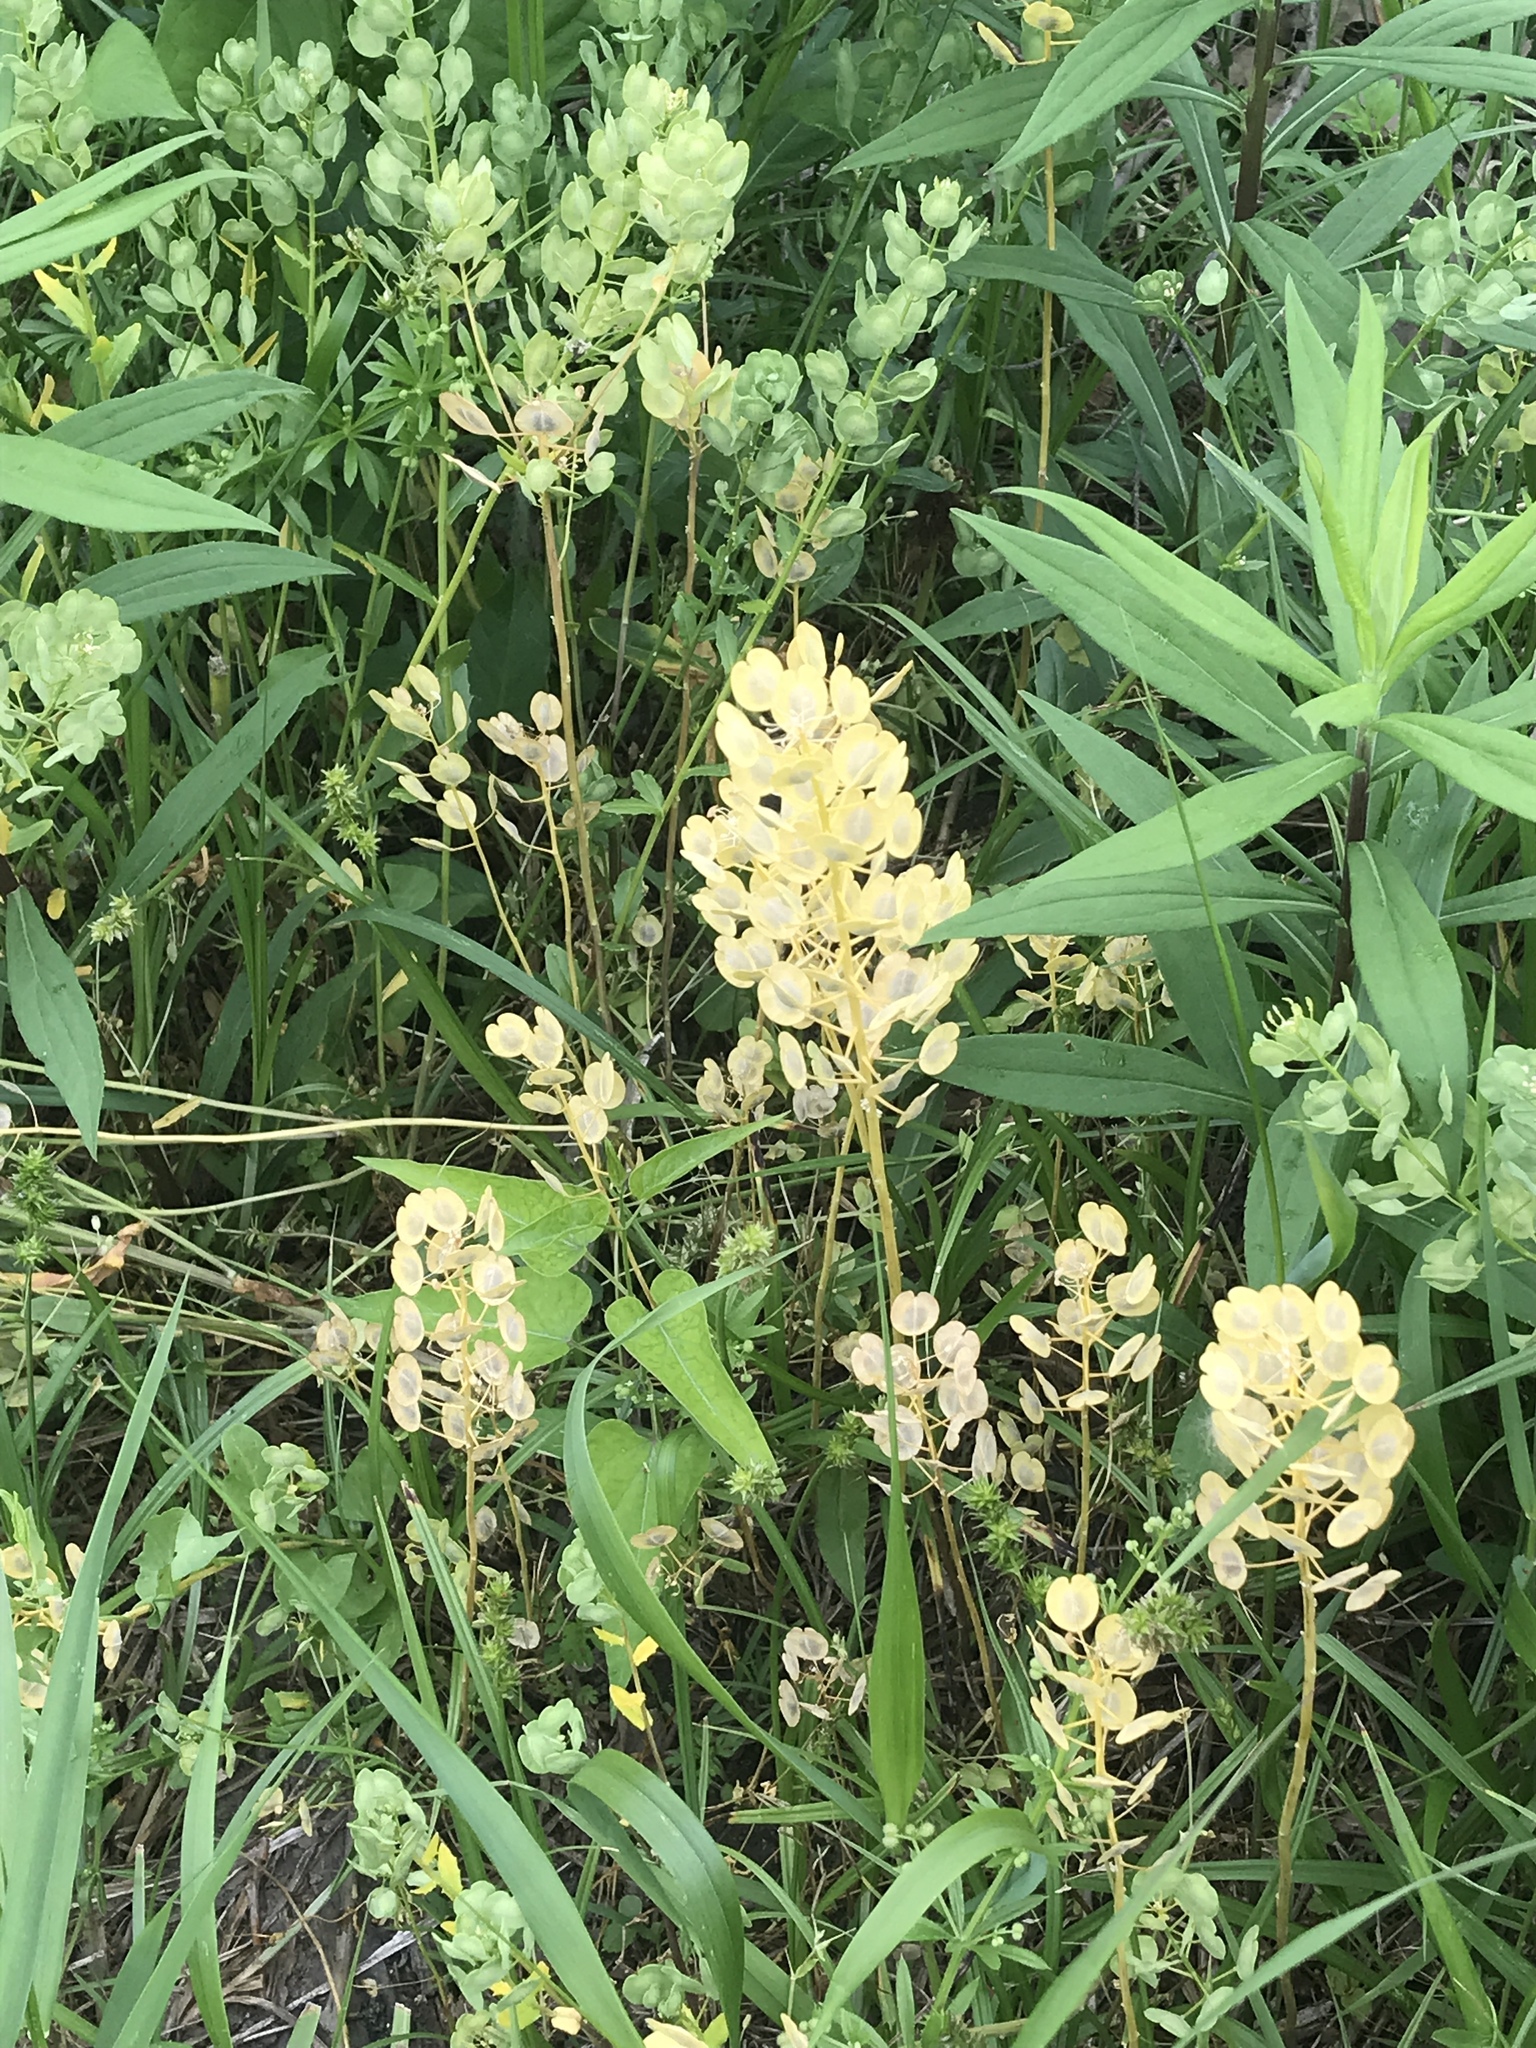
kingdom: Plantae
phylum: Tracheophyta
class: Magnoliopsida
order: Brassicales
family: Brassicaceae
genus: Thlaspi
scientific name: Thlaspi arvense
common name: Field pennycress
